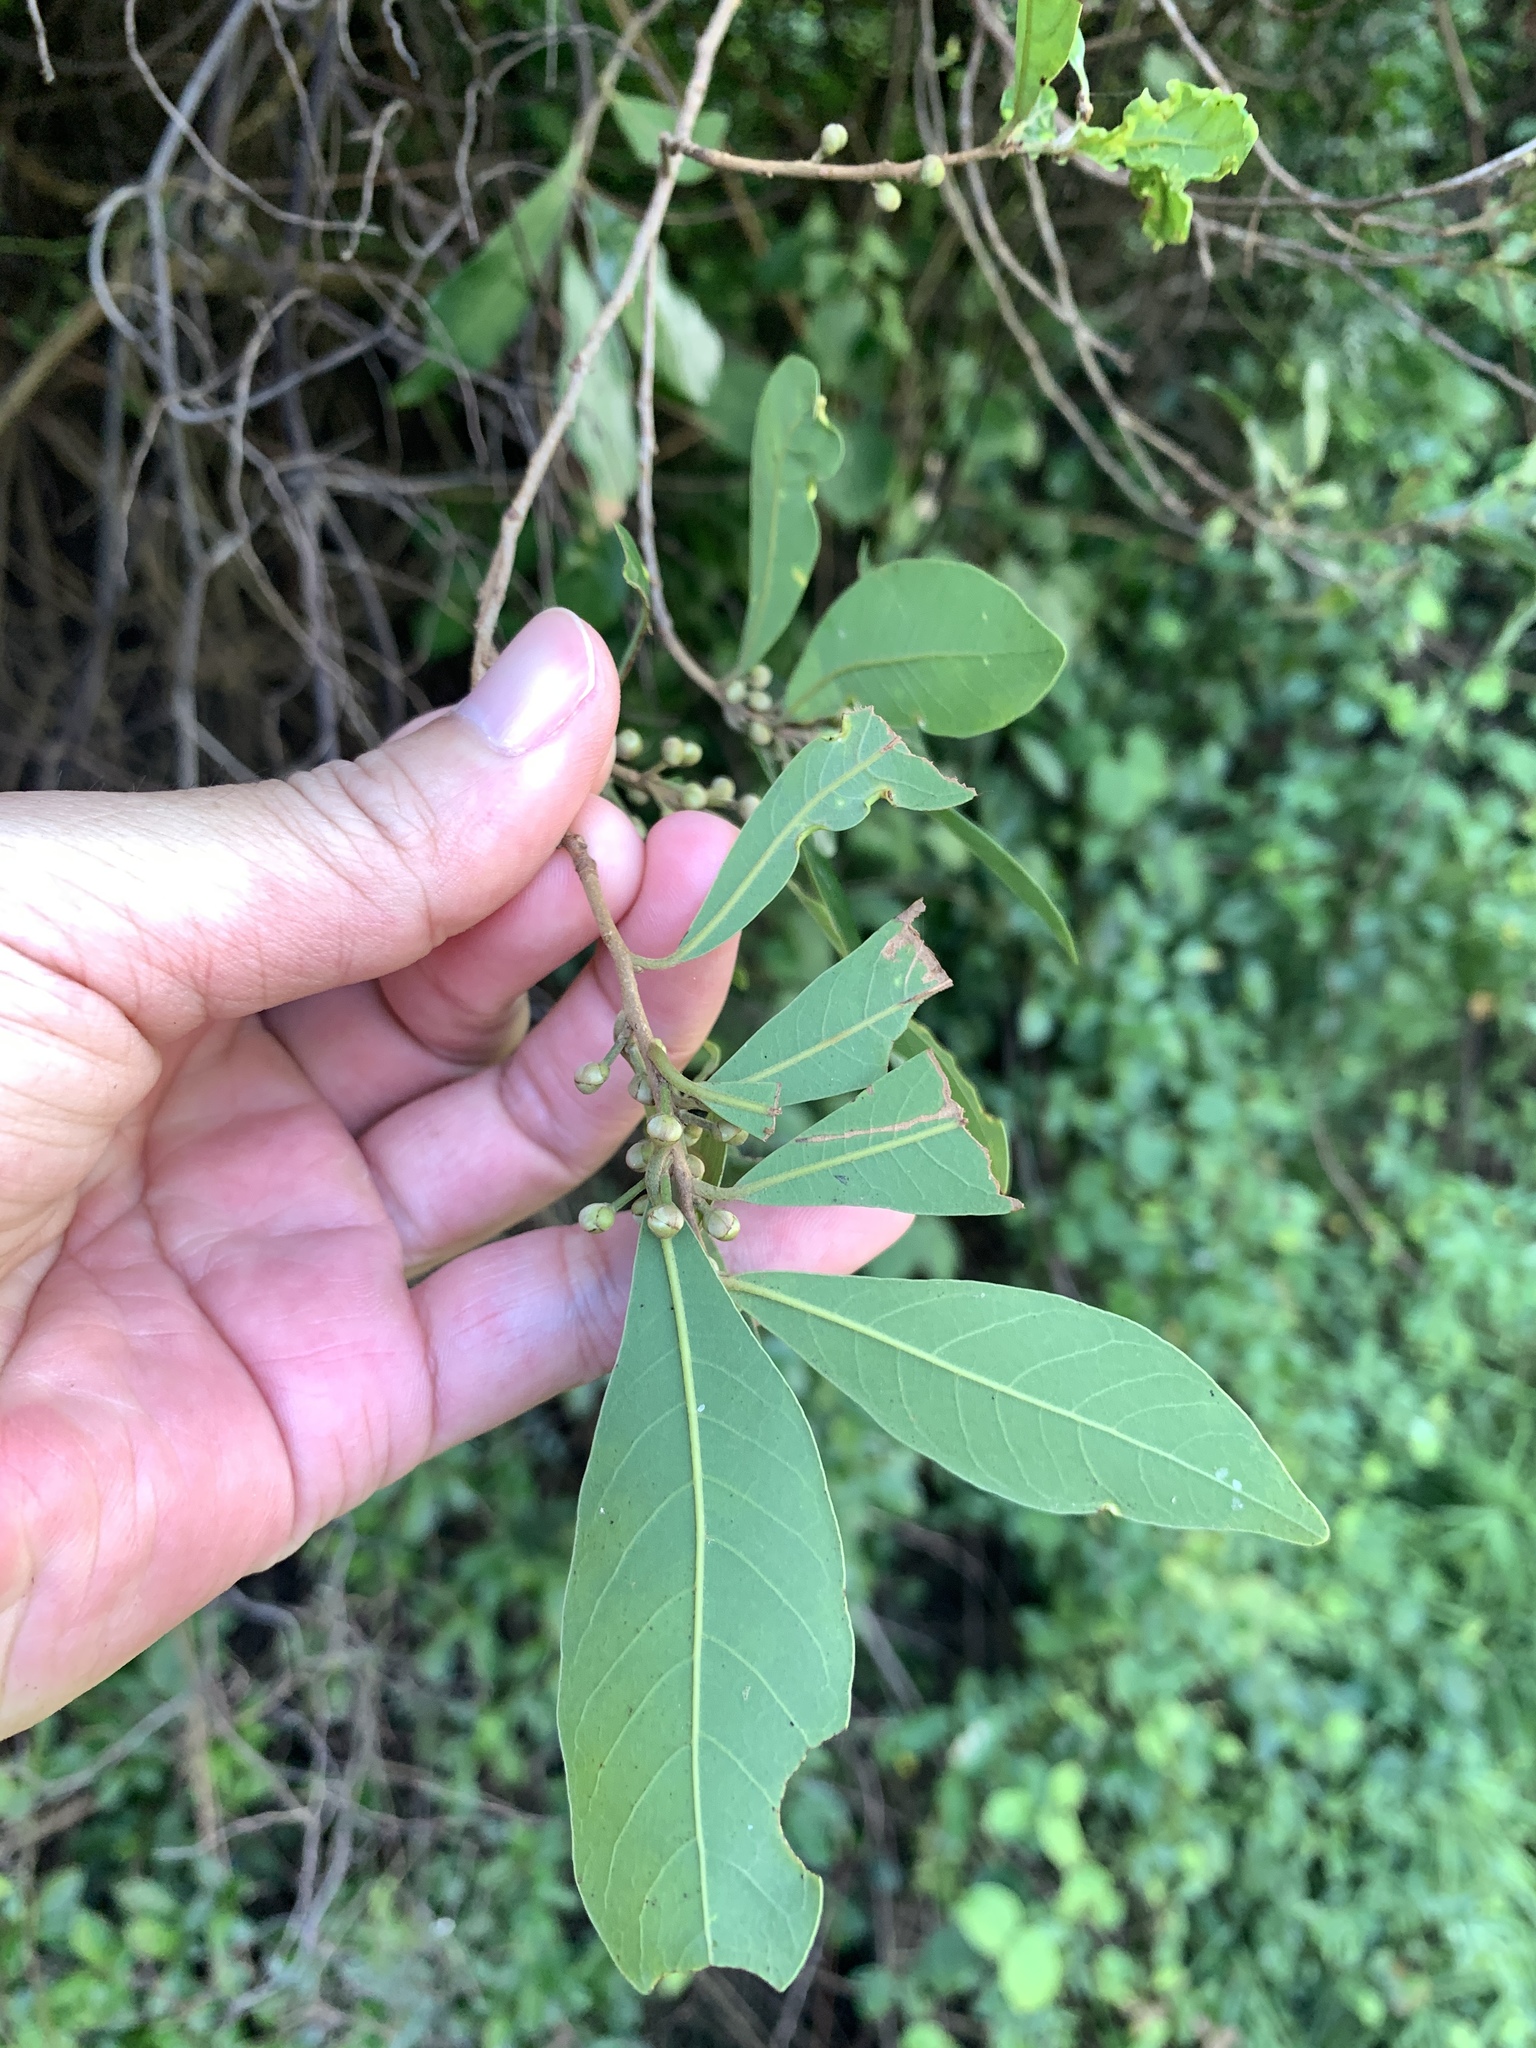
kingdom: Plantae
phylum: Tracheophyta
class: Magnoliopsida
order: Laurales
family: Lauraceae
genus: Litsea
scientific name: Litsea hypophaea
